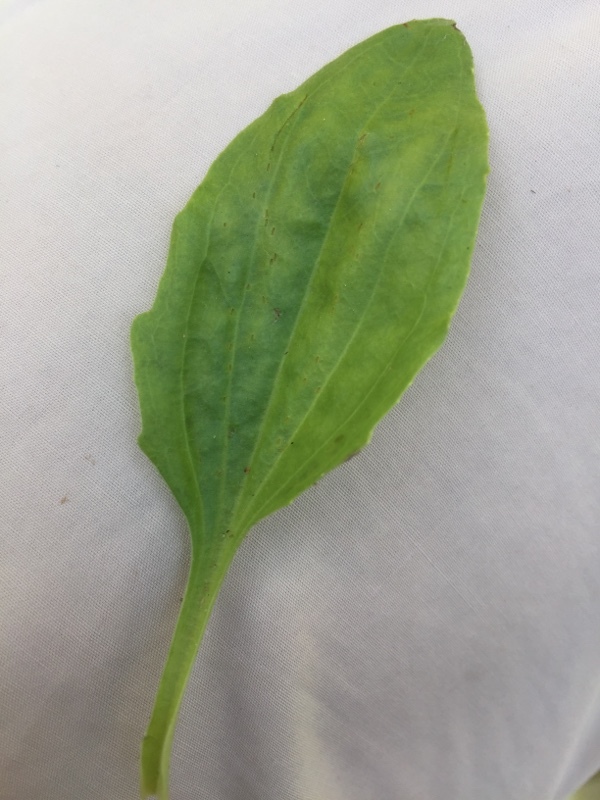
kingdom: Plantae
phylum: Tracheophyta
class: Magnoliopsida
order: Lamiales
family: Plantaginaceae
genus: Plantago
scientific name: Plantago uliginosa
